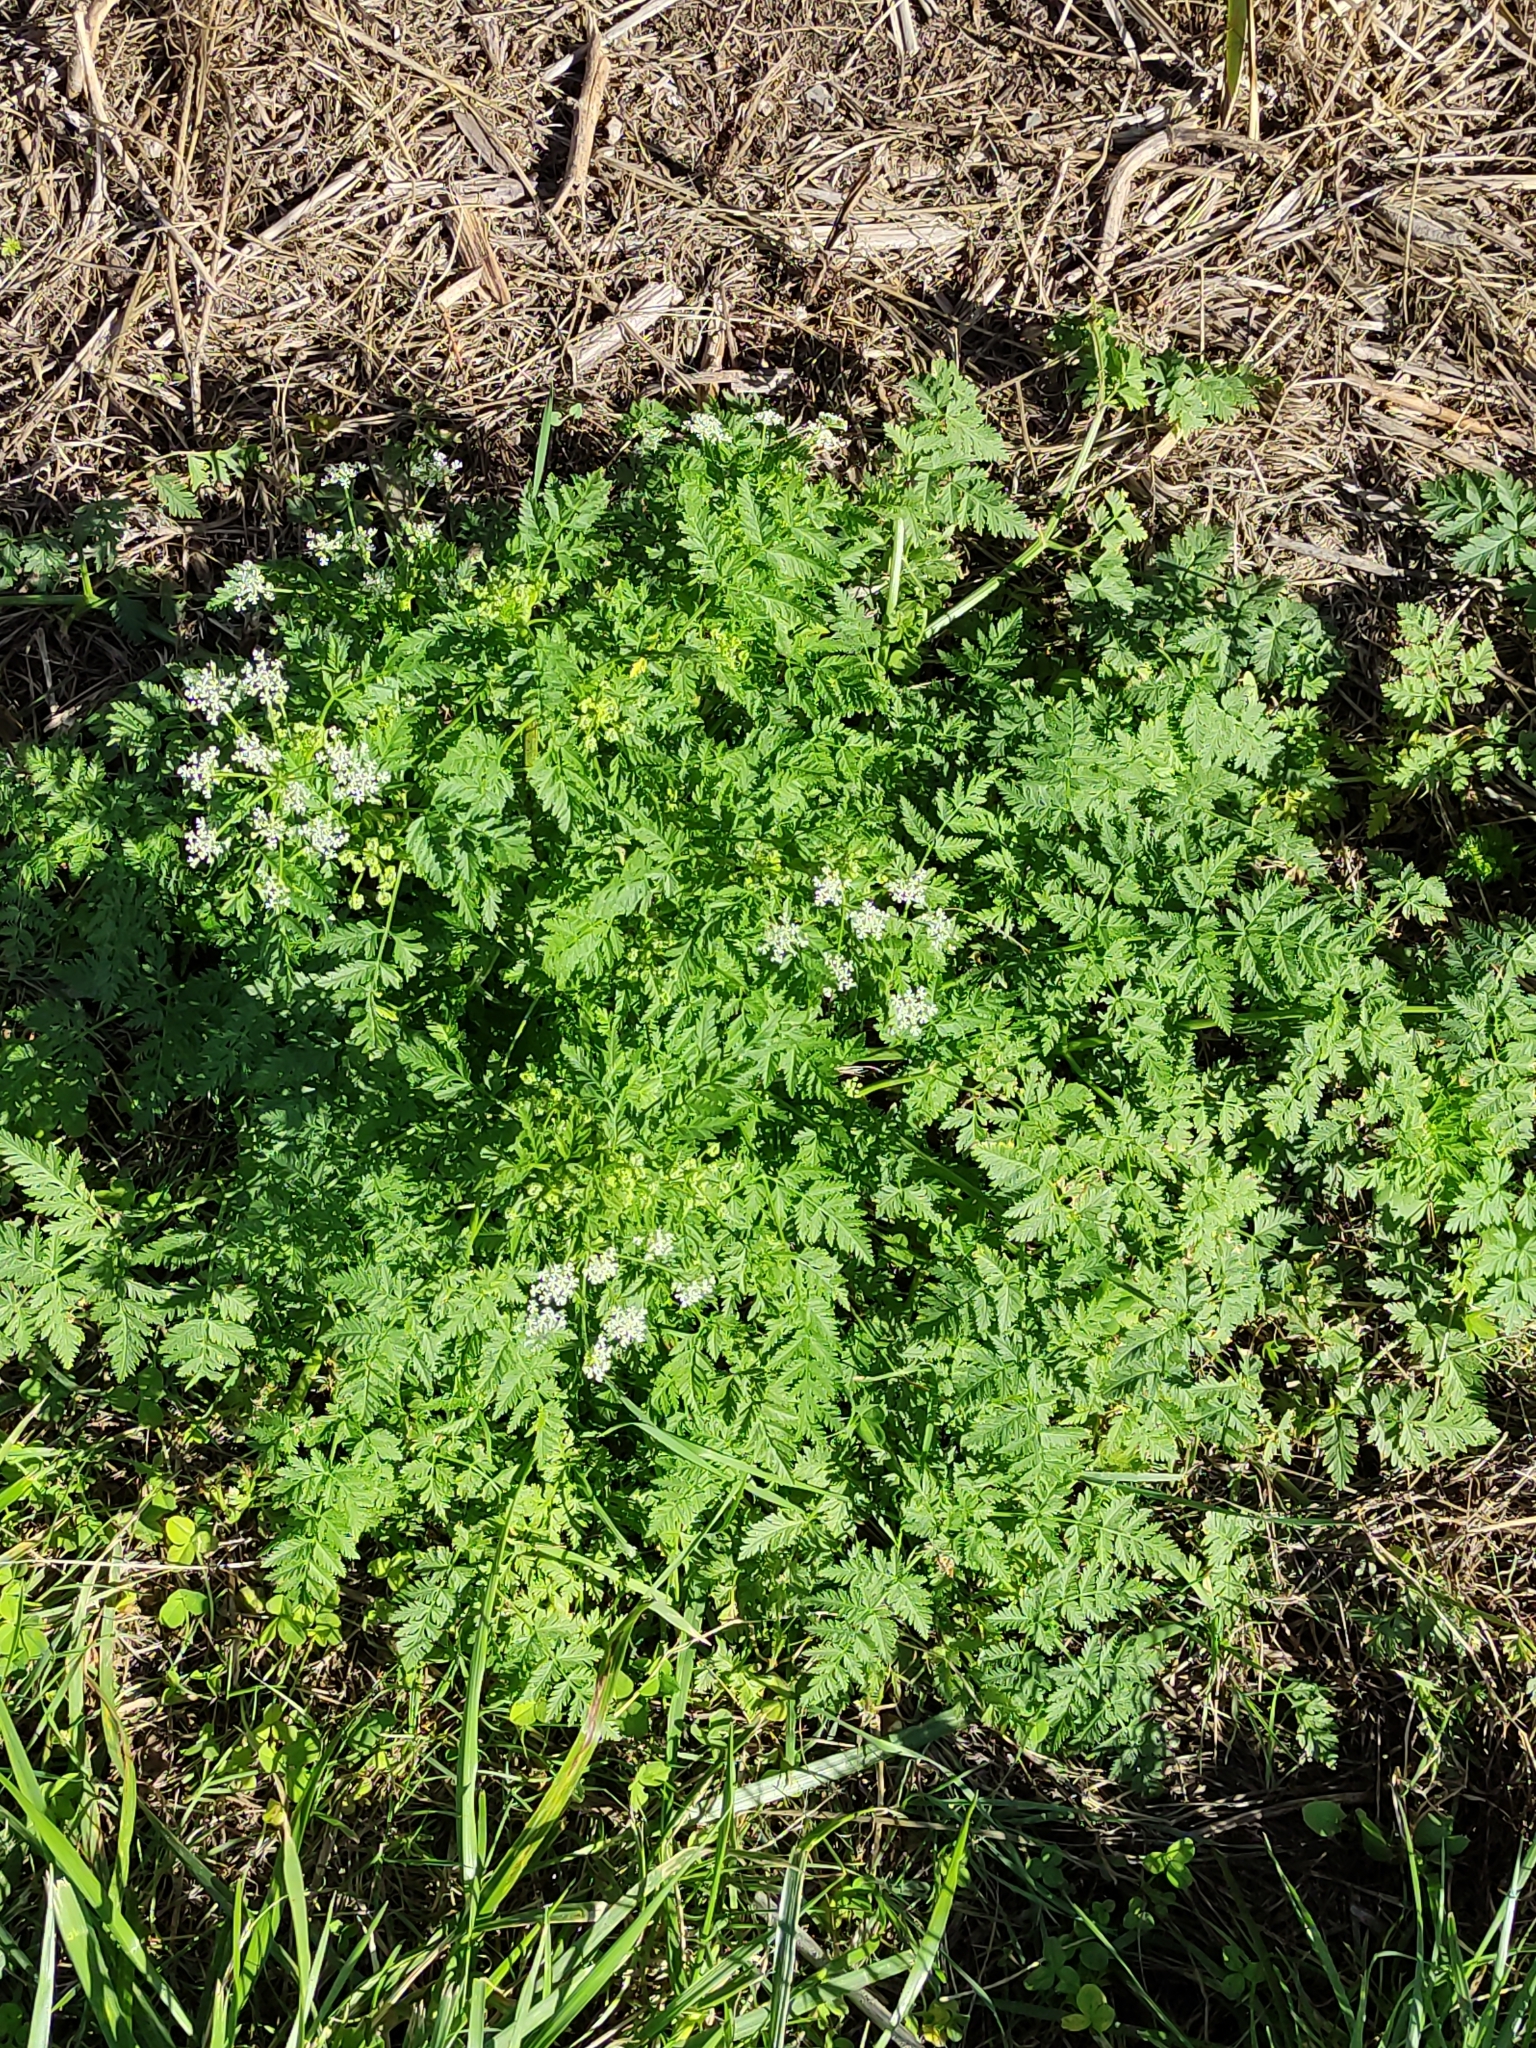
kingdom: Plantae
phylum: Tracheophyta
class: Magnoliopsida
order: Apiales
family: Apiaceae
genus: Conium
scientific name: Conium maculatum
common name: Hemlock
